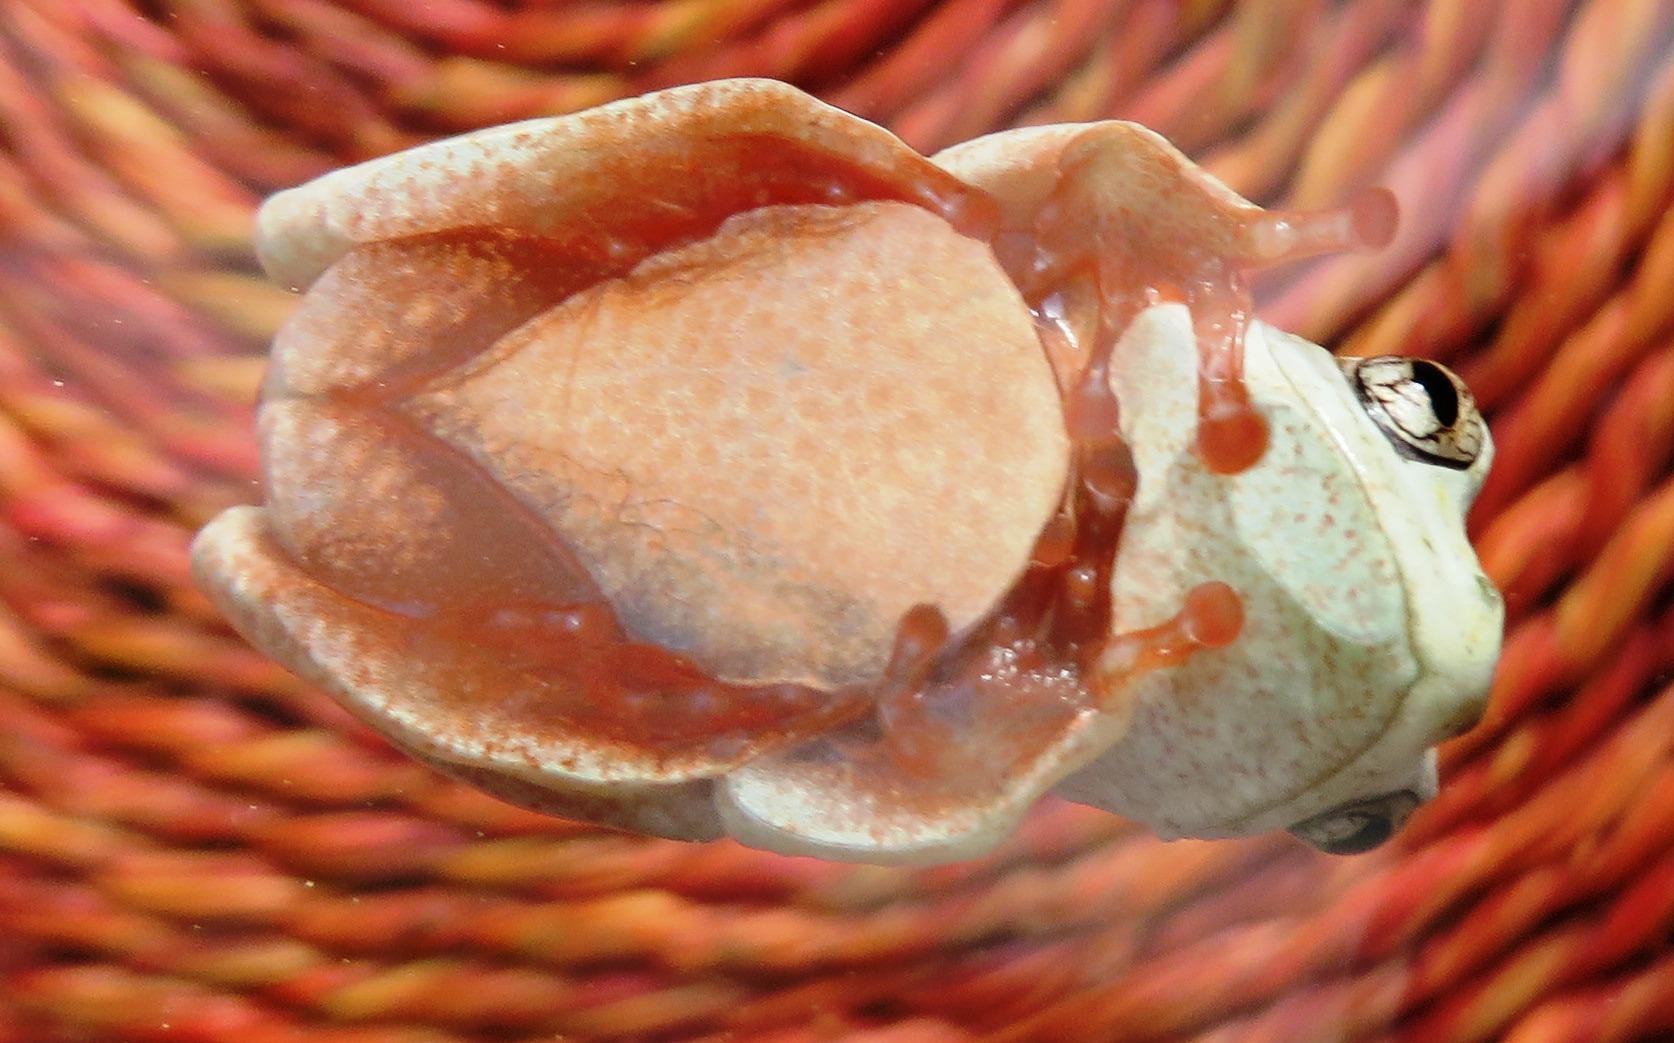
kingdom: Animalia
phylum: Chordata
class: Amphibia
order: Anura
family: Hyperoliidae
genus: Hyperolius
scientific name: Hyperolius marmoratus
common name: Painted reed frog
